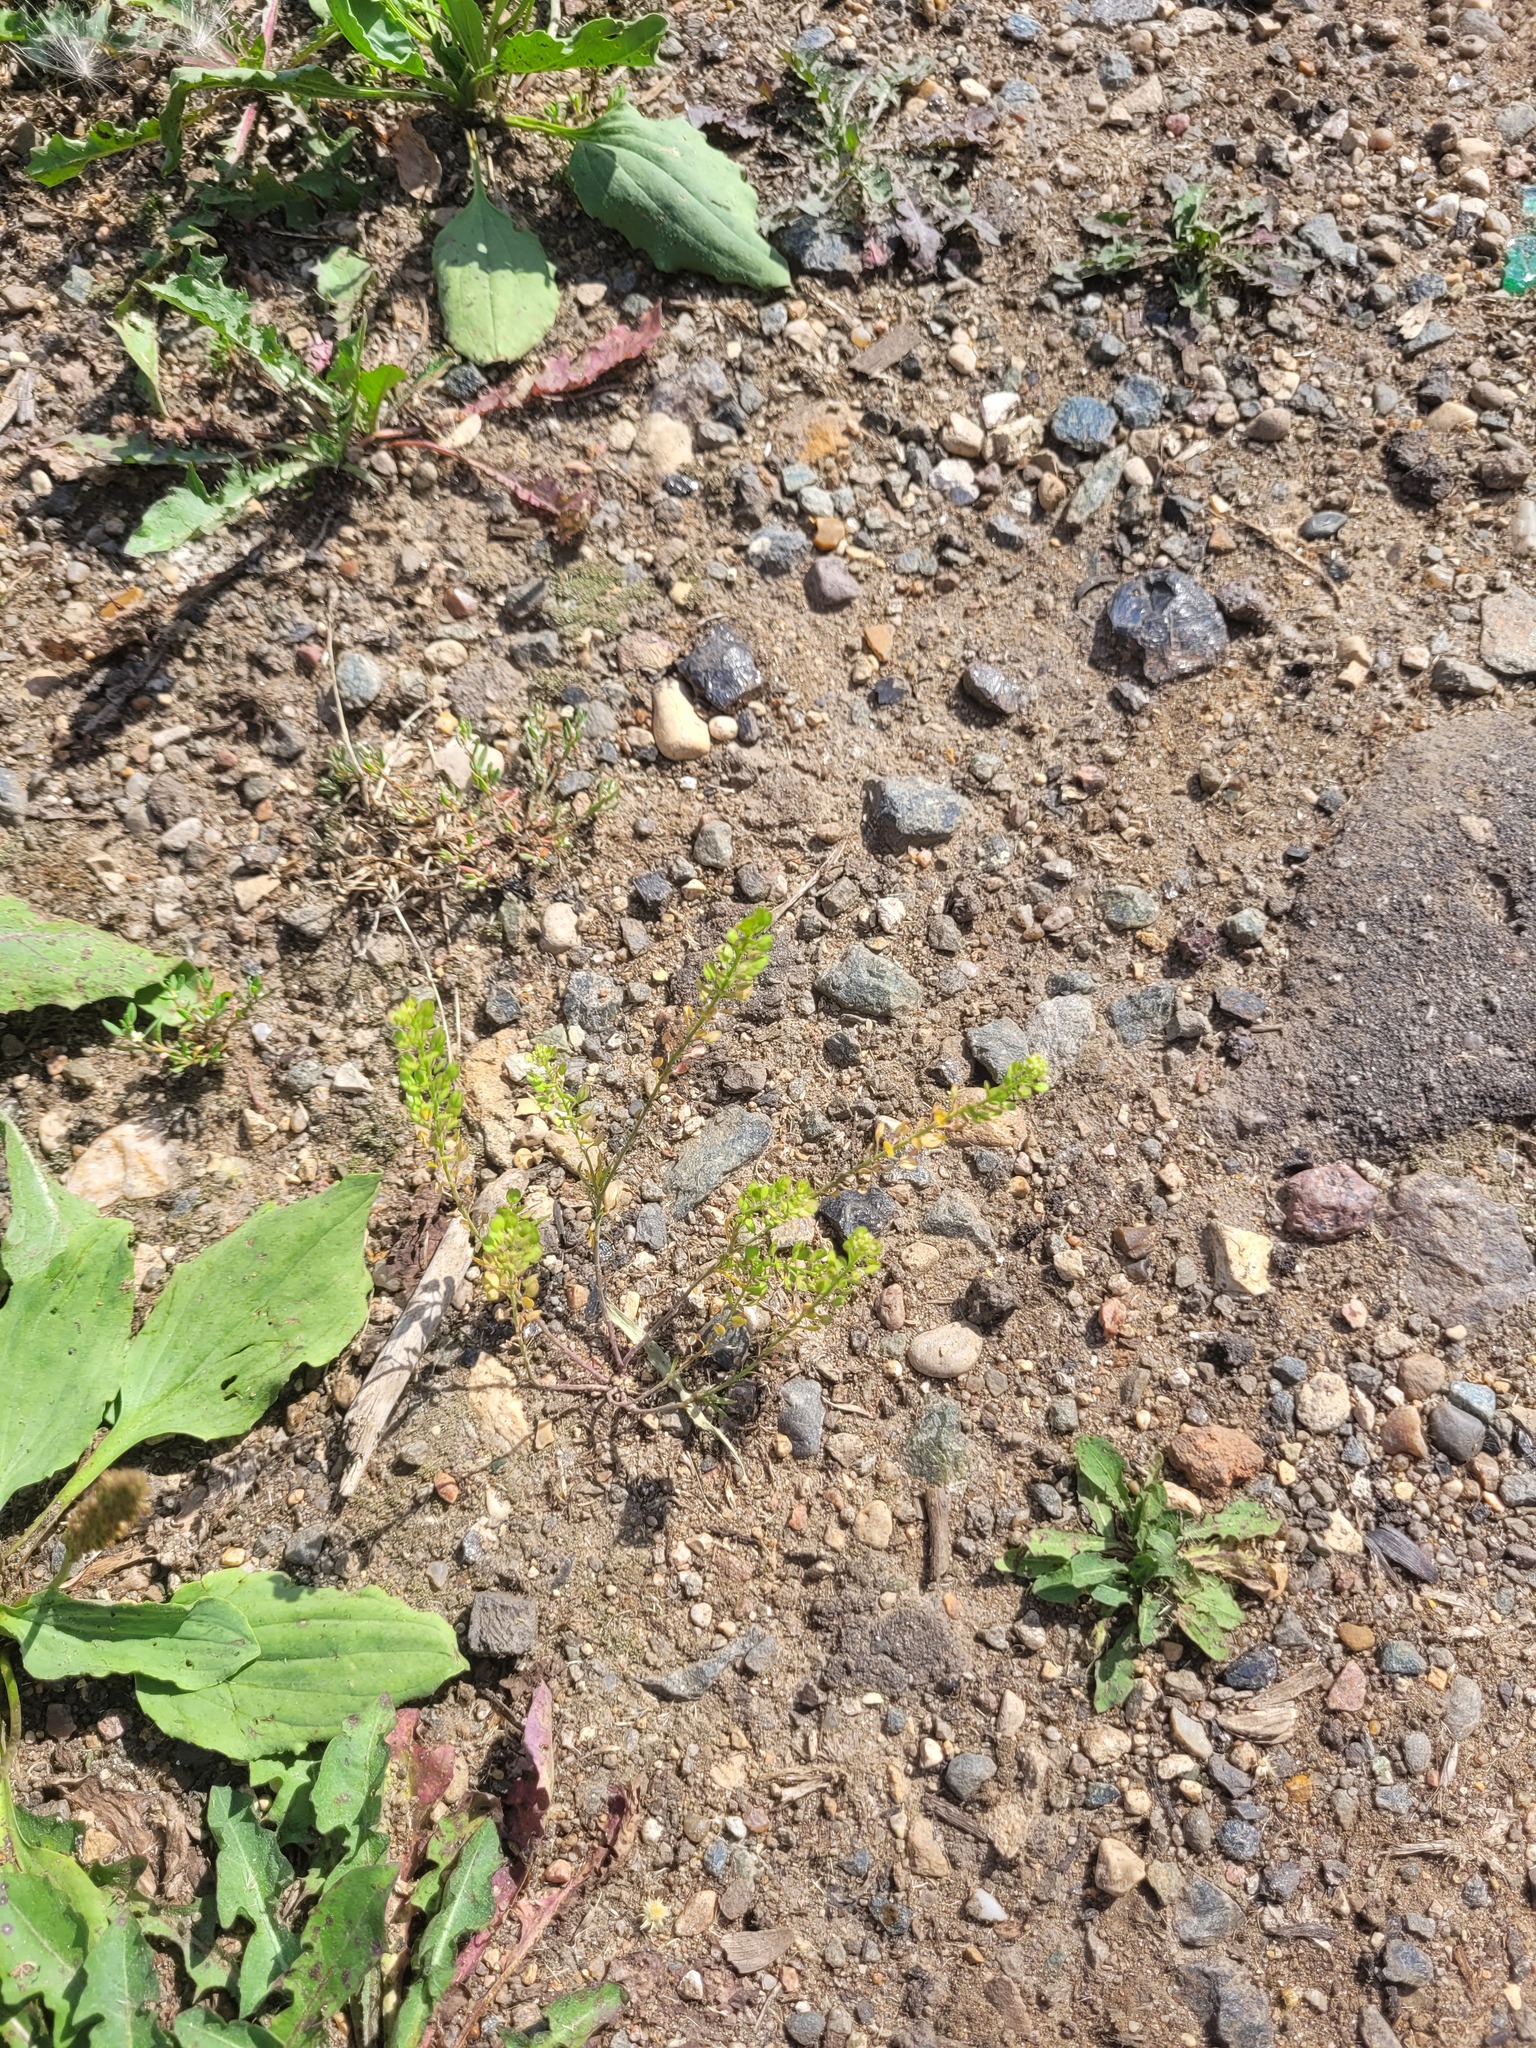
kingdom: Plantae
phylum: Tracheophyta
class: Magnoliopsida
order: Brassicales
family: Brassicaceae
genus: Lepidium
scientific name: Lepidium densiflorum
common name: Miner's pepperwort
